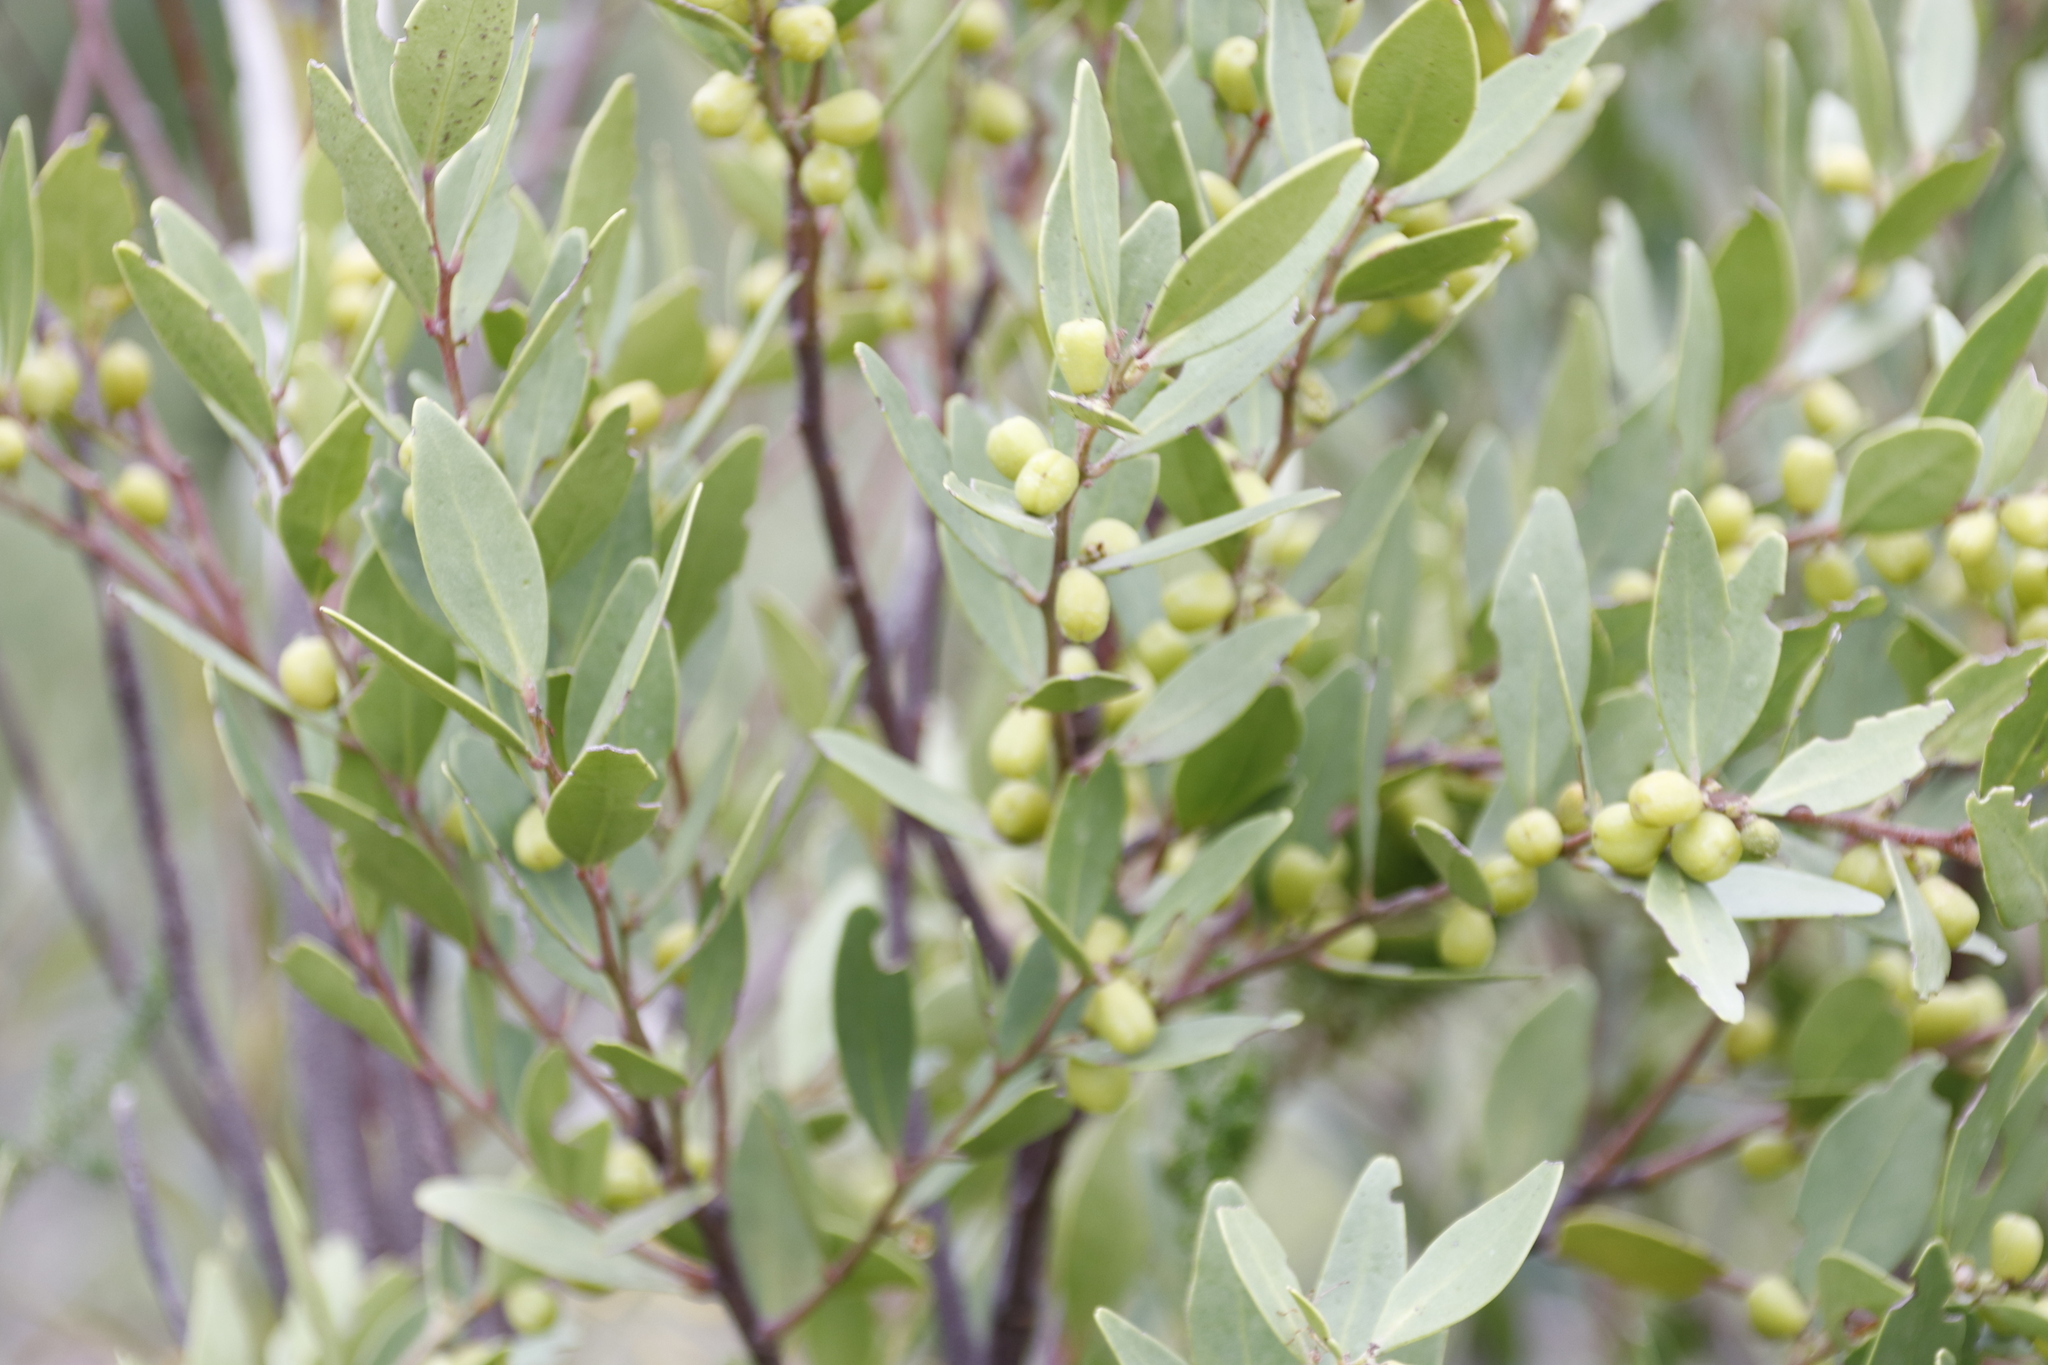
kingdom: Plantae
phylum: Tracheophyta
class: Magnoliopsida
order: Celastrales
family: Celastraceae
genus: Gymnosporia
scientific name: Gymnosporia laurina
